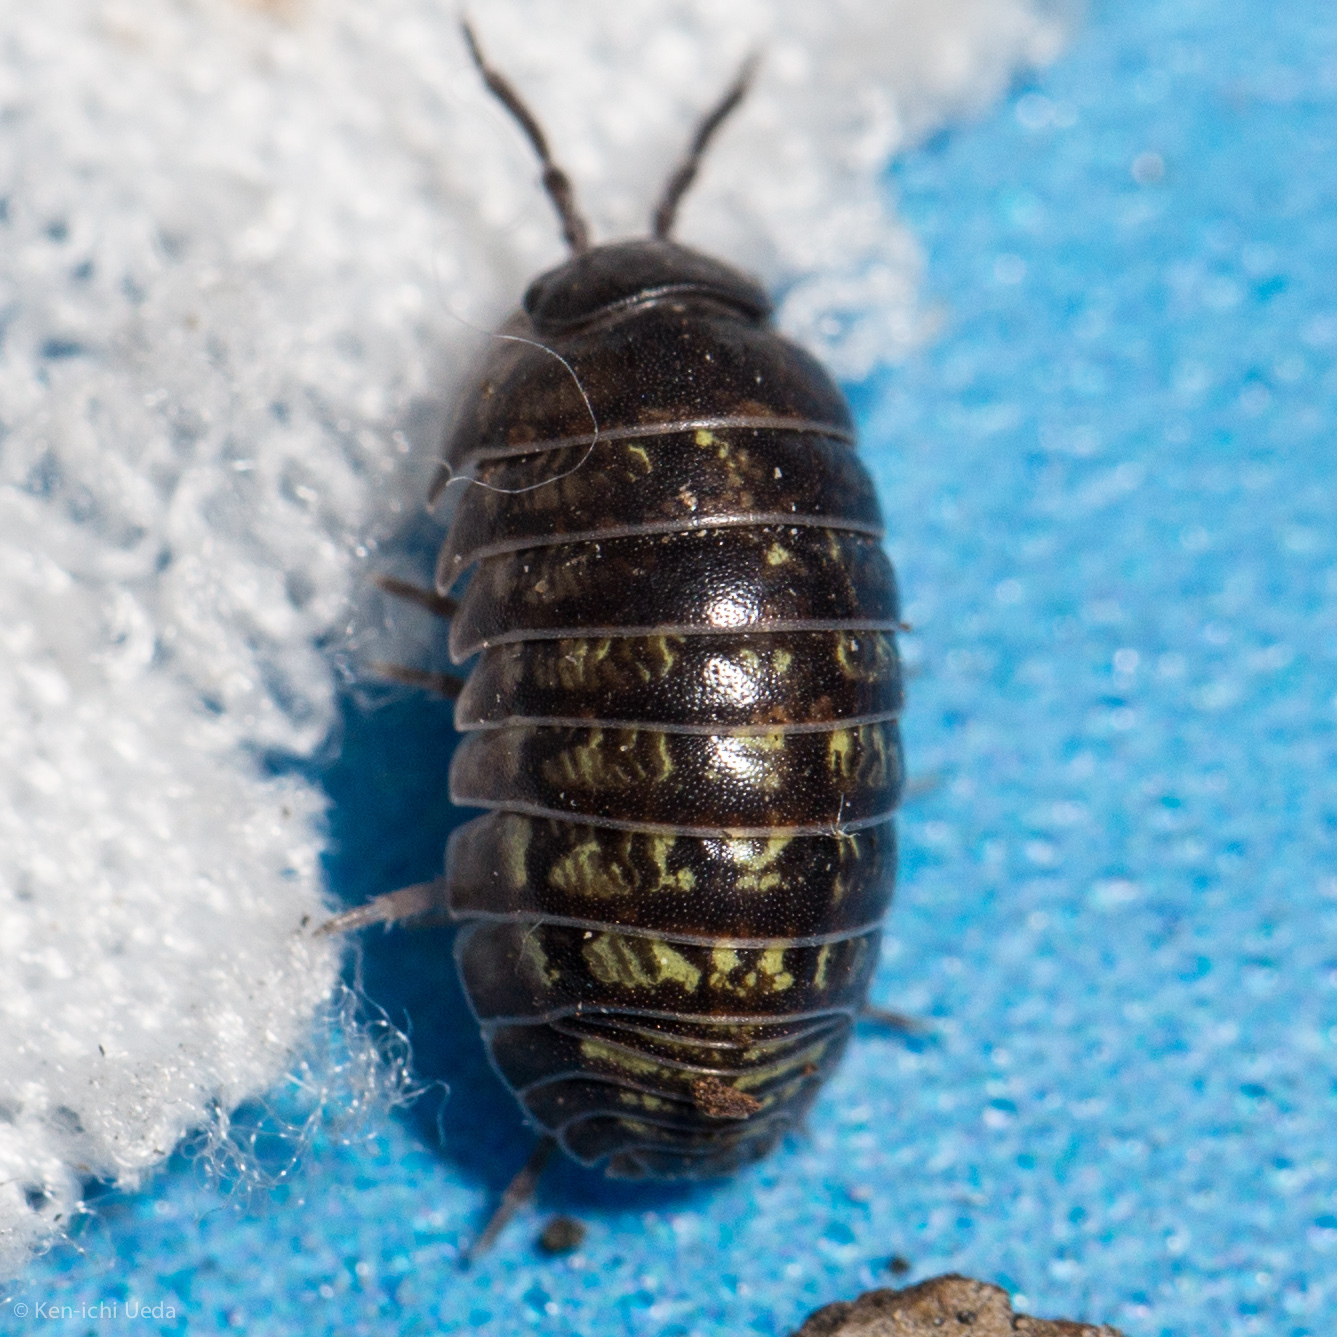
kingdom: Animalia
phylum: Arthropoda
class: Malacostraca
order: Isopoda
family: Armadillidiidae
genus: Armadillidium
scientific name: Armadillidium vulgare
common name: Common pill woodlouse
